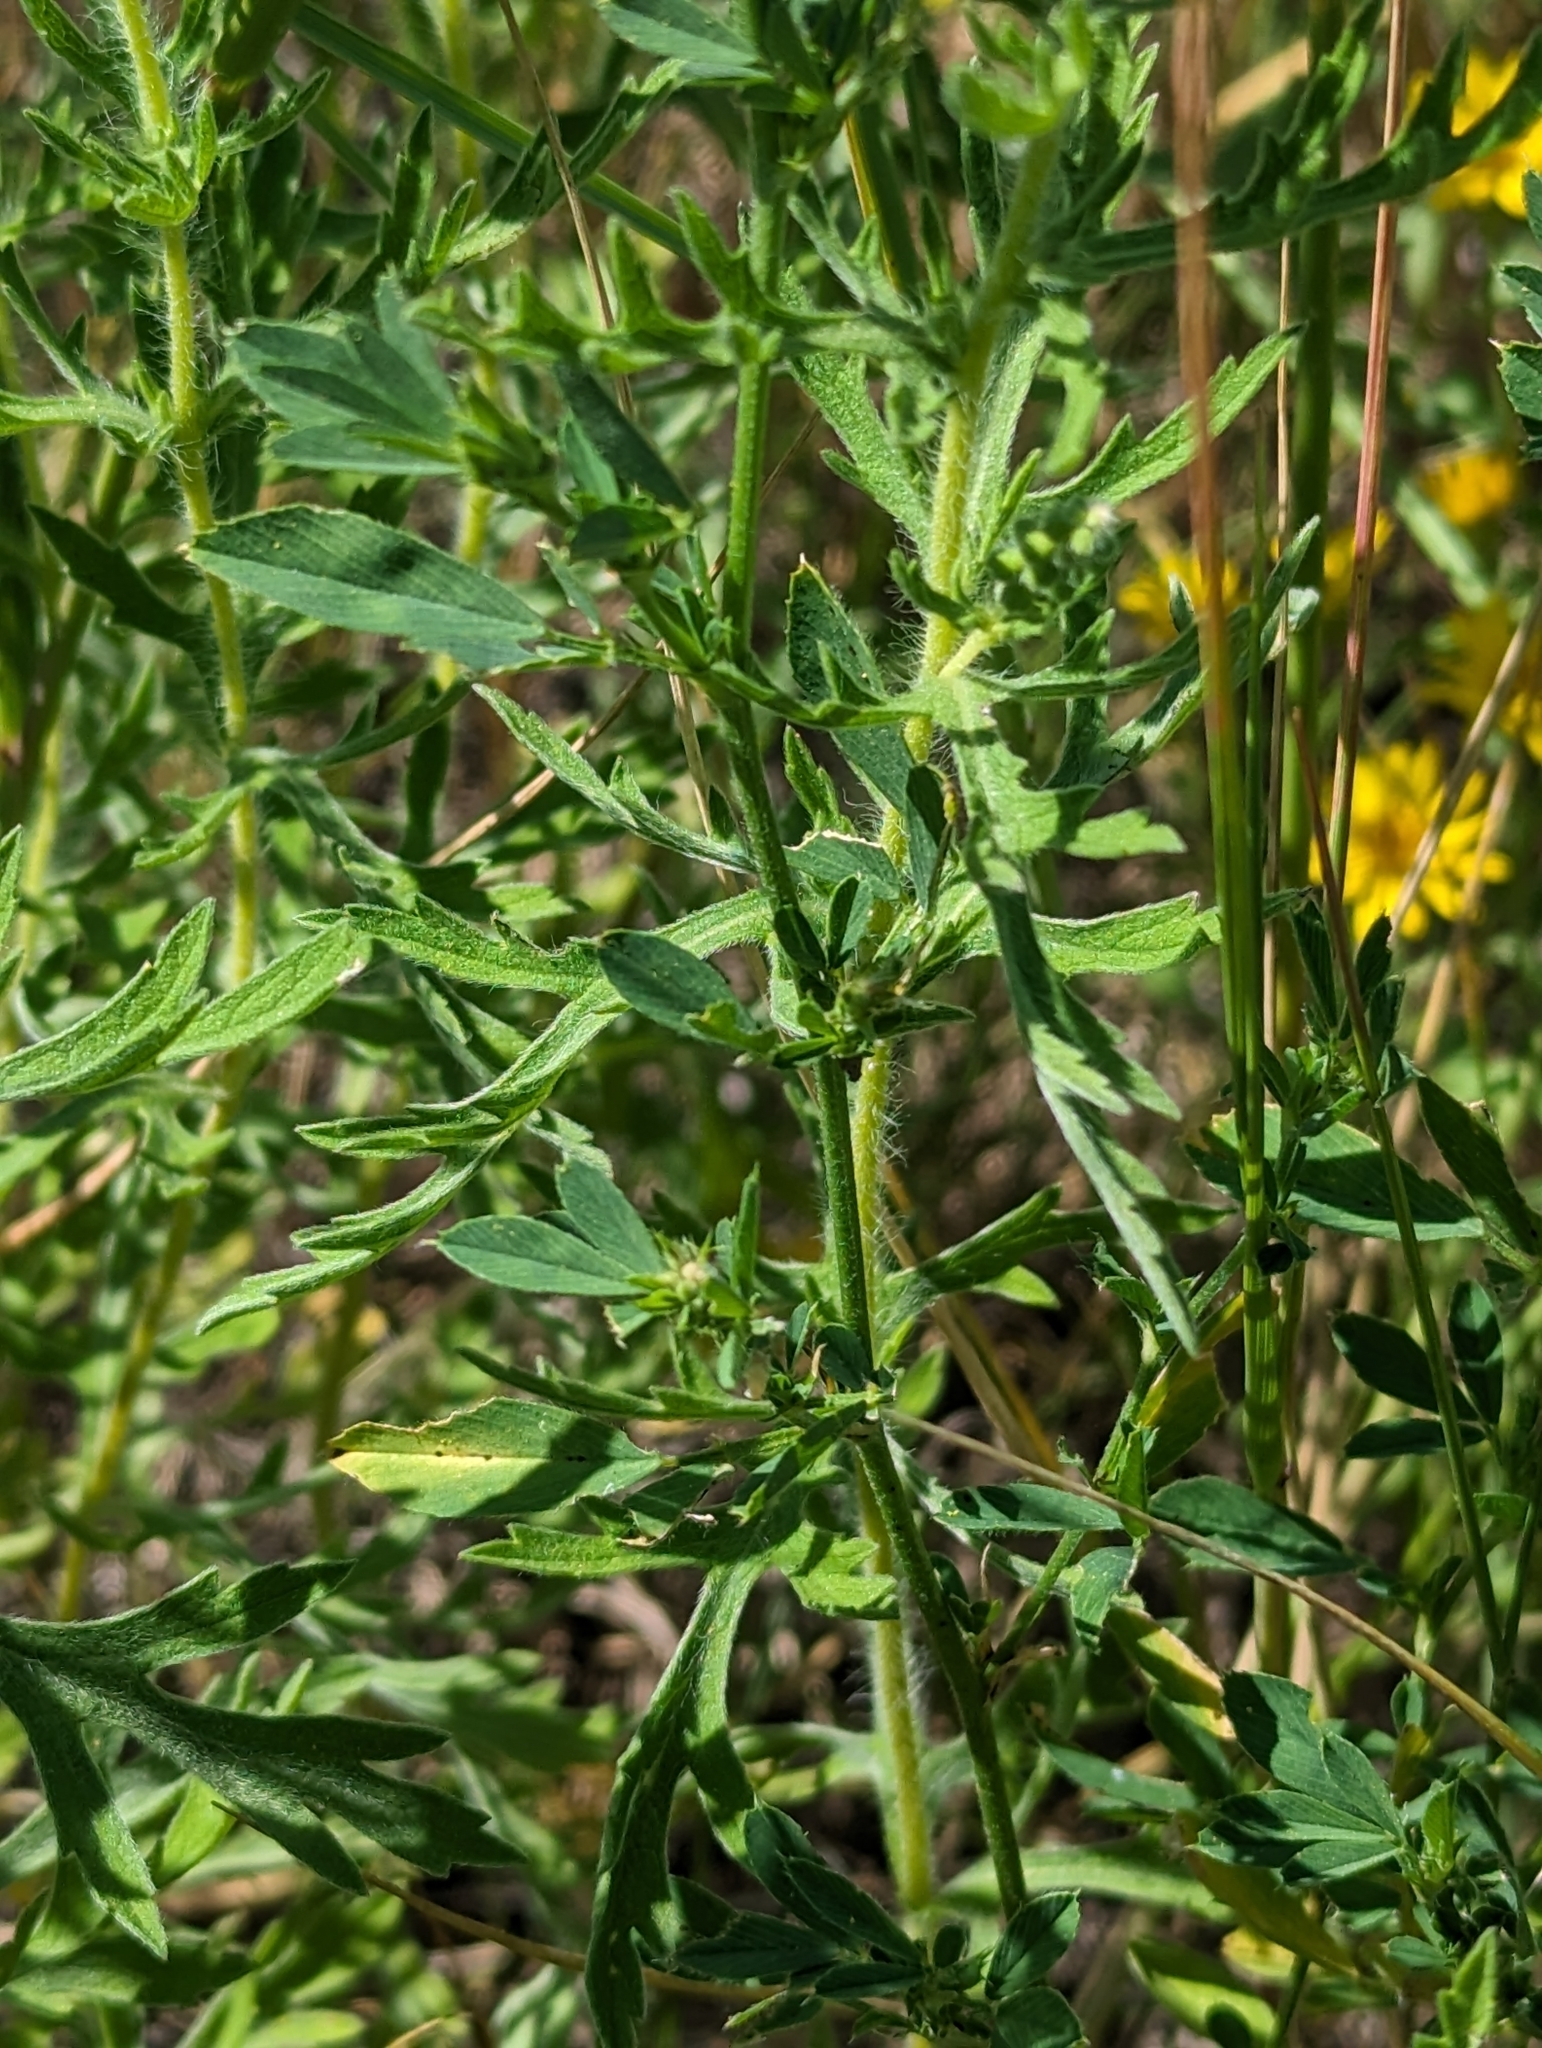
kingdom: Plantae
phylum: Tracheophyta
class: Magnoliopsida
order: Fabales
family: Fabaceae
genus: Medicago
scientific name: Medicago sativa
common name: Alfalfa
